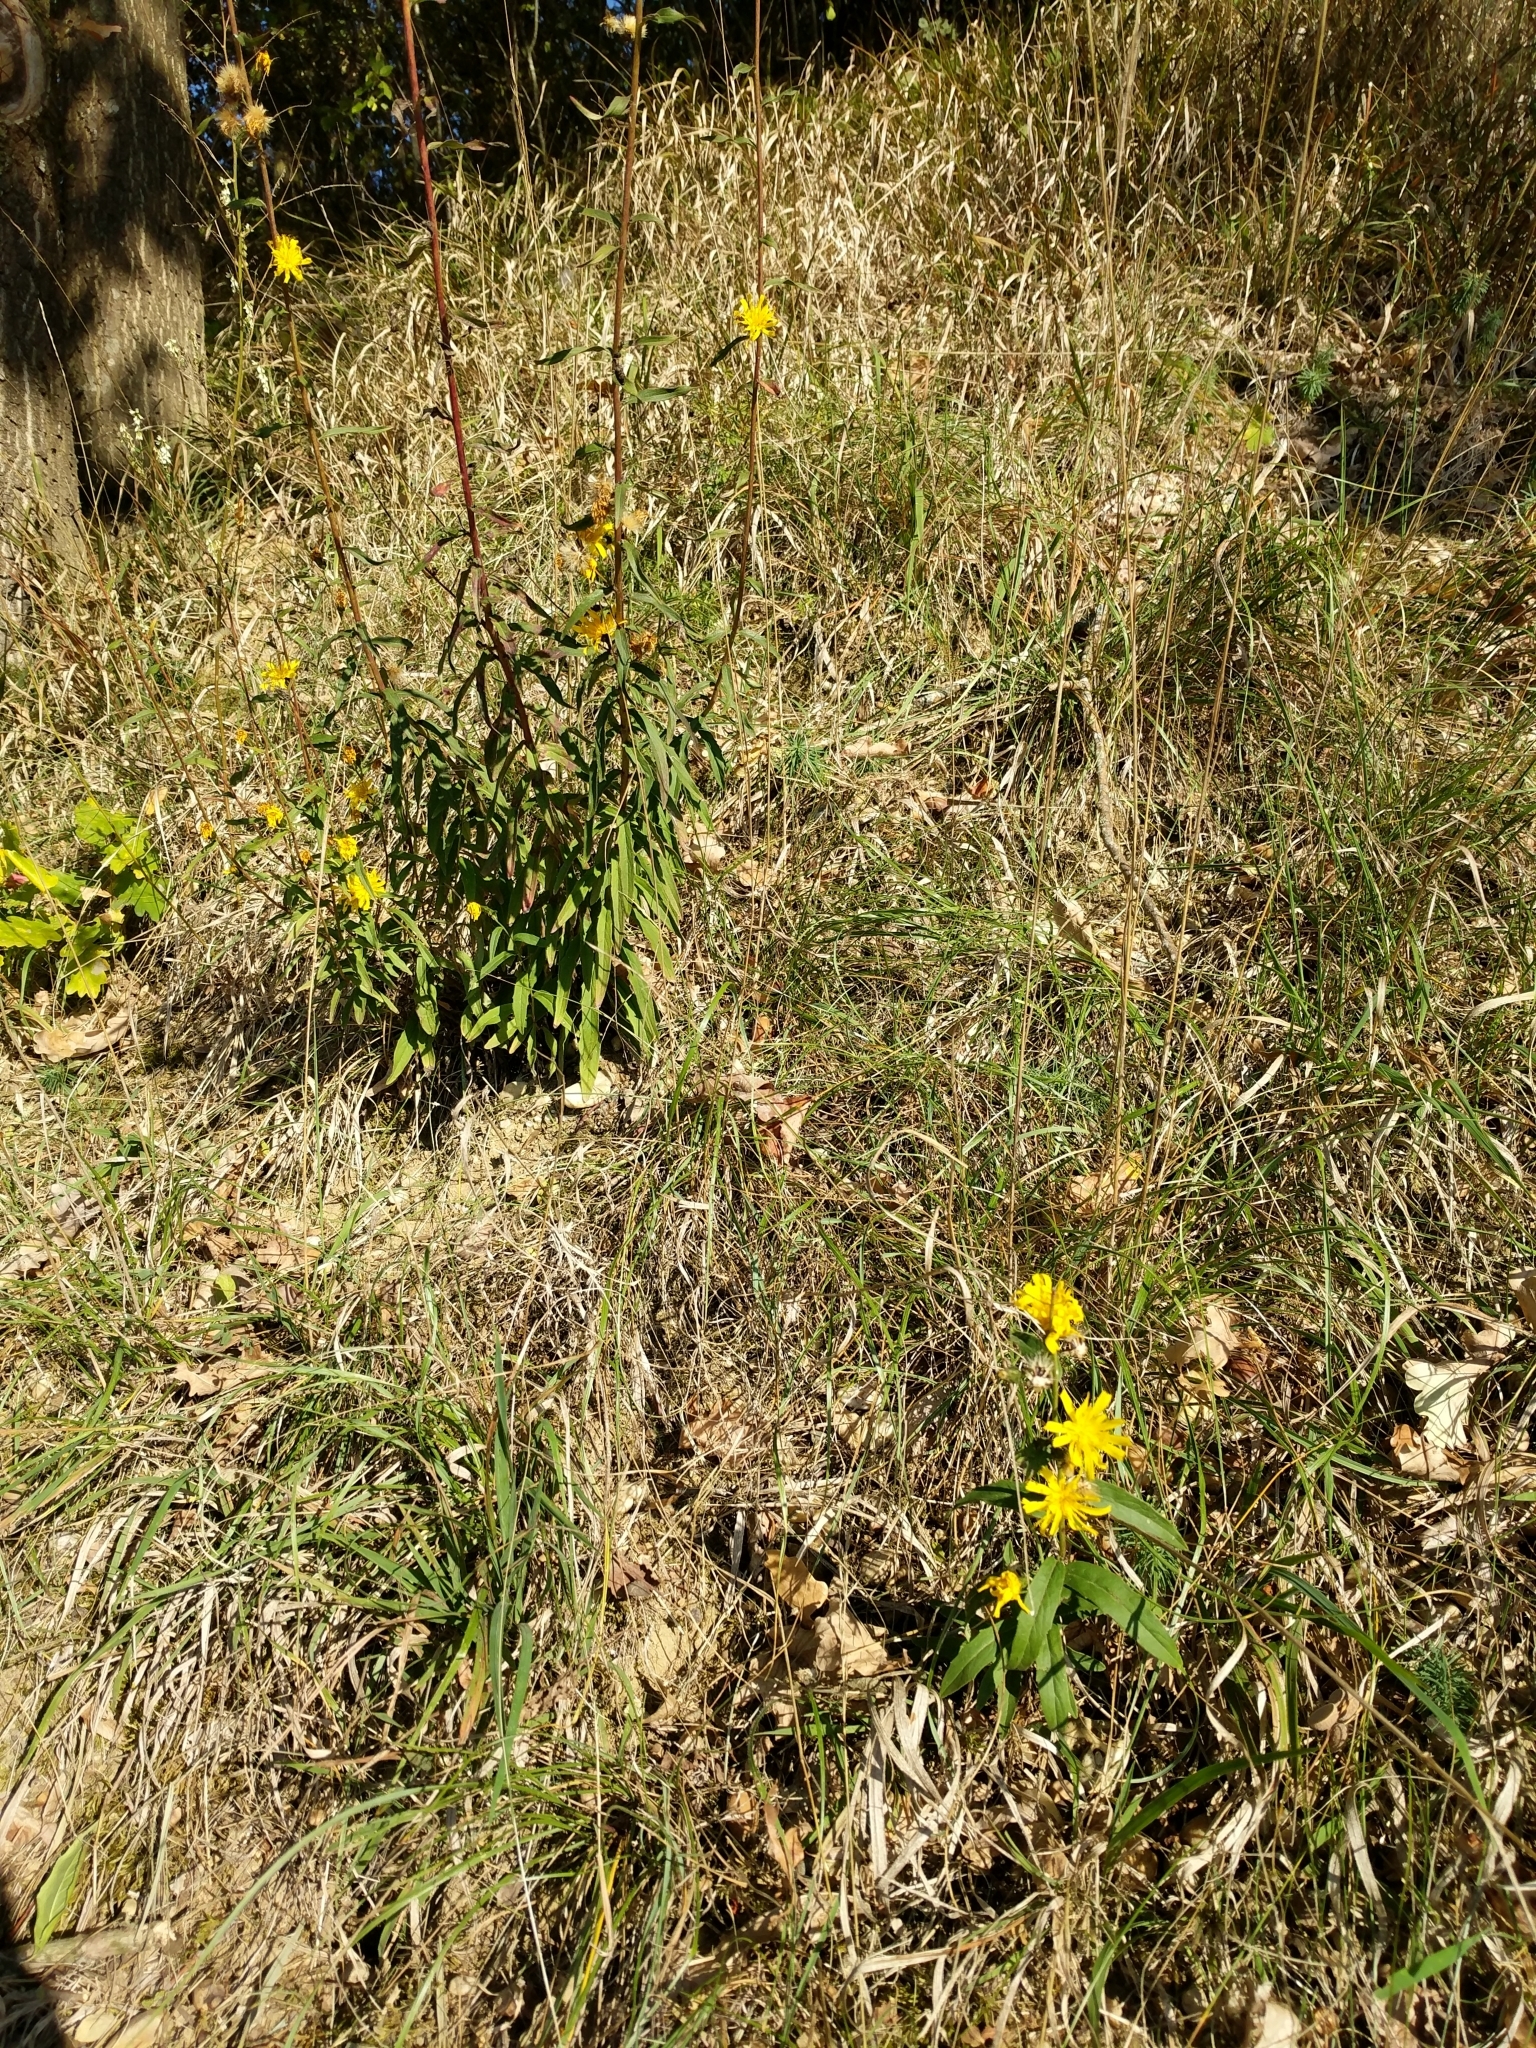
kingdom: Plantae
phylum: Tracheophyta
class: Magnoliopsida
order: Asterales
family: Asteraceae
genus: Hieracium
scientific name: Hieracium umbellatum
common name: Northern hawkweed
